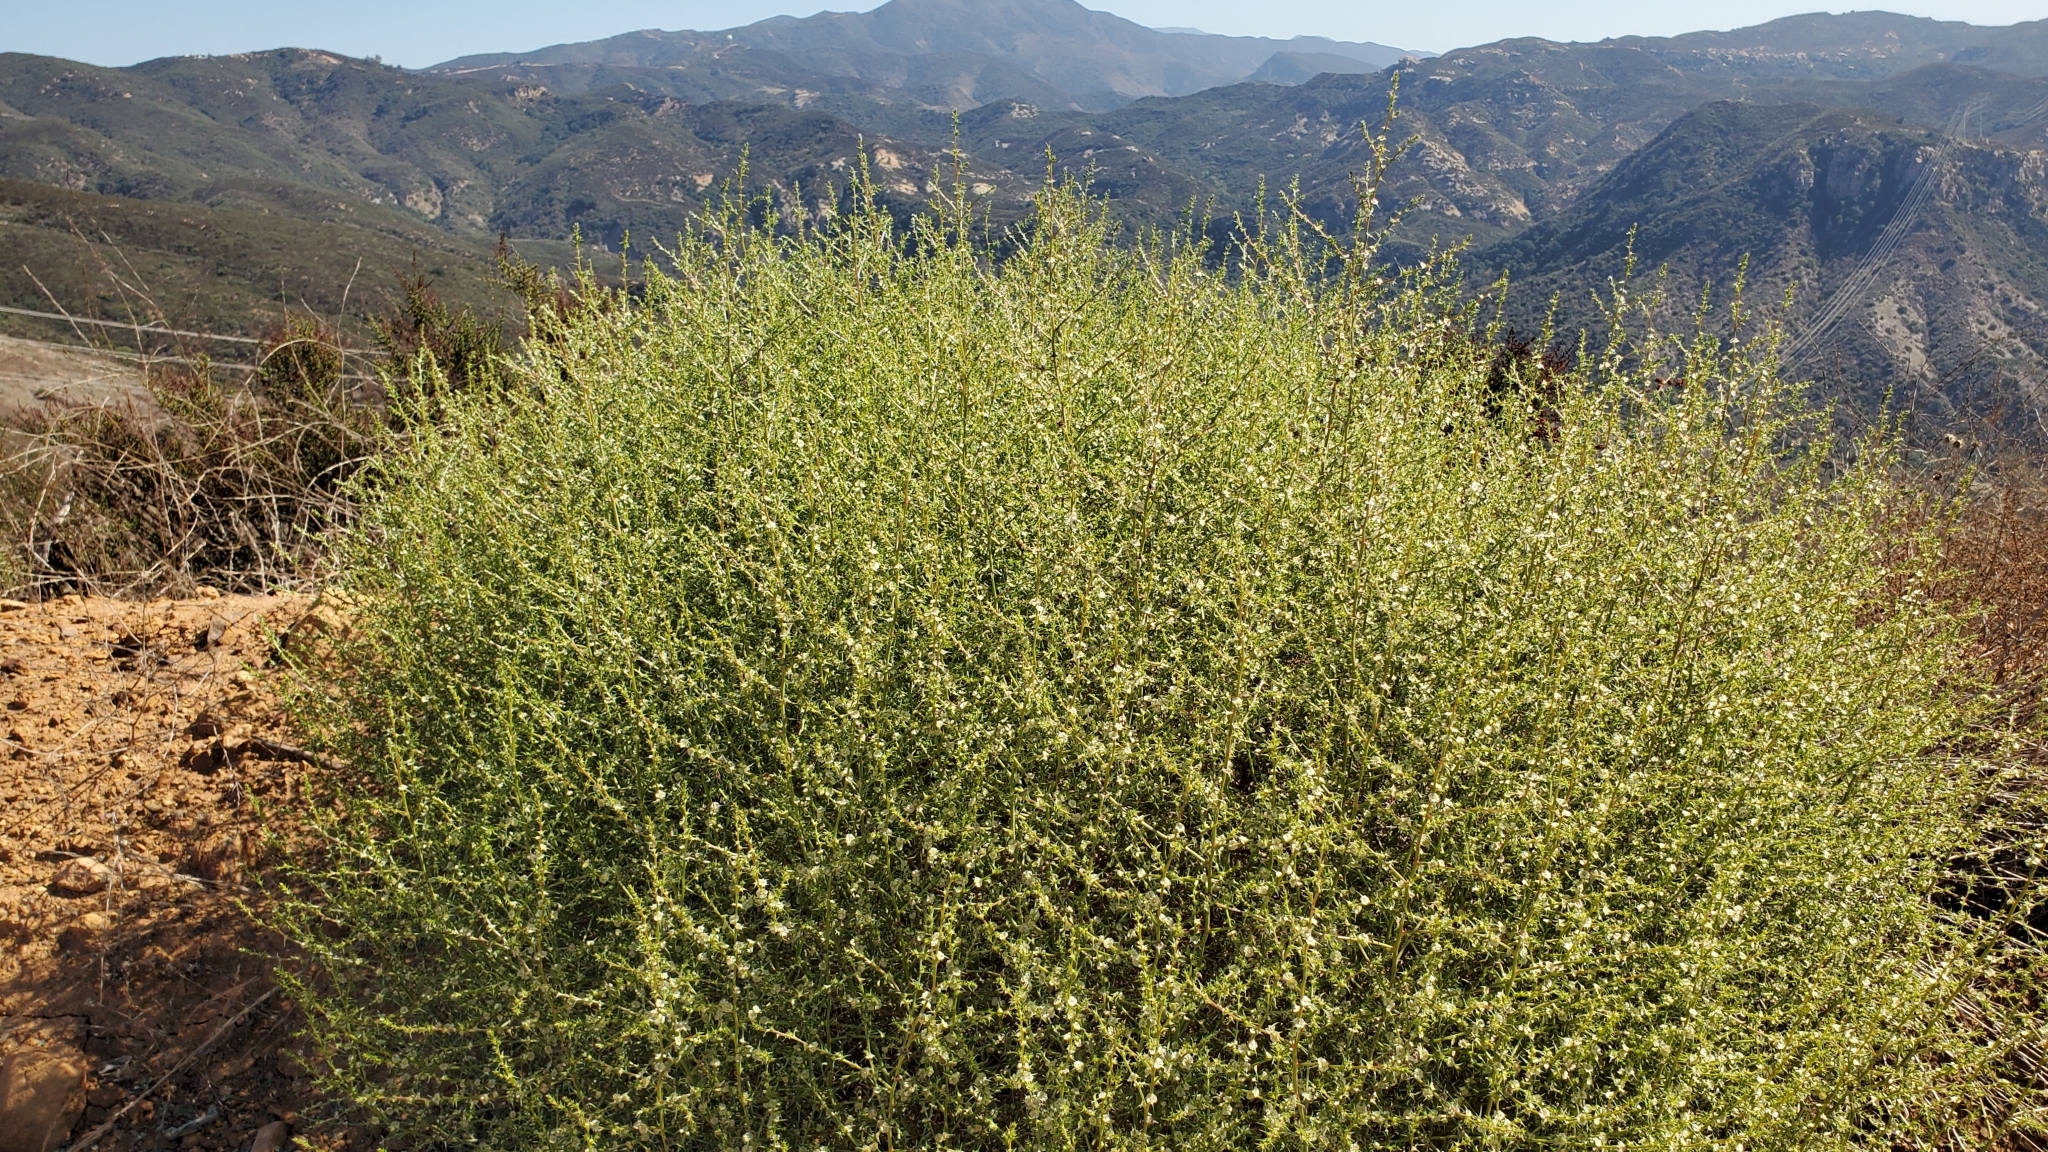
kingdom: Plantae
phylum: Tracheophyta
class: Magnoliopsida
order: Caryophyllales
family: Amaranthaceae
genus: Salsola
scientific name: Salsola australis
